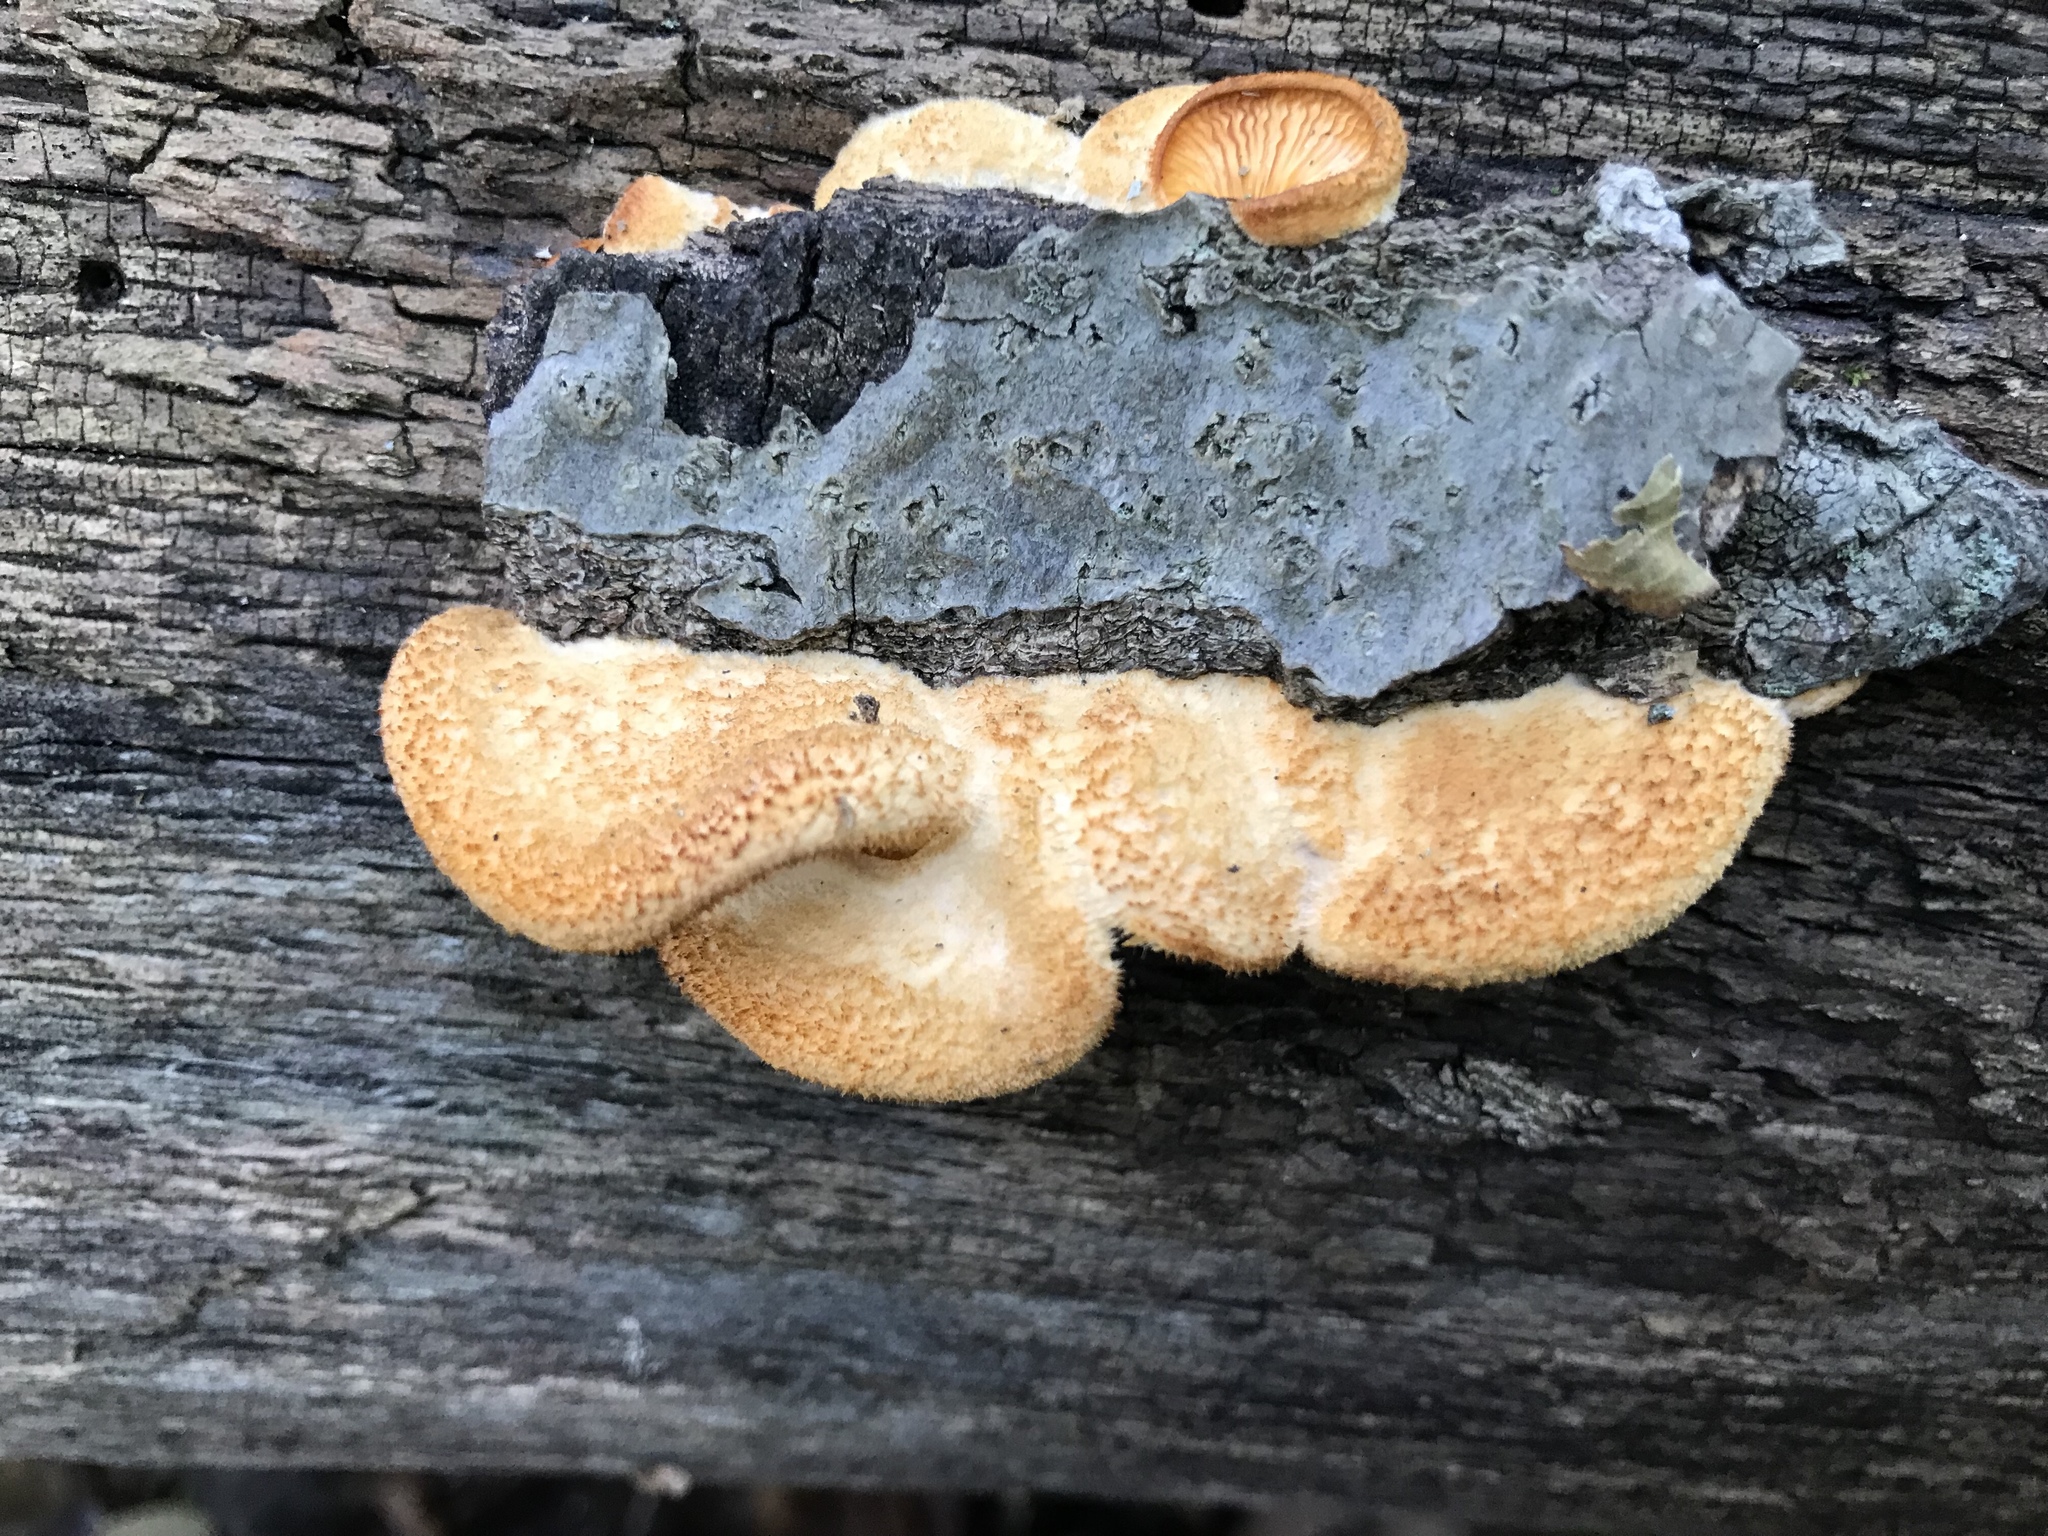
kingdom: Fungi
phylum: Basidiomycota
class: Agaricomycetes
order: Agaricales
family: Phyllotopsidaceae
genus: Phyllotopsis
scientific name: Phyllotopsis nidulans
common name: Orange mock oyster
